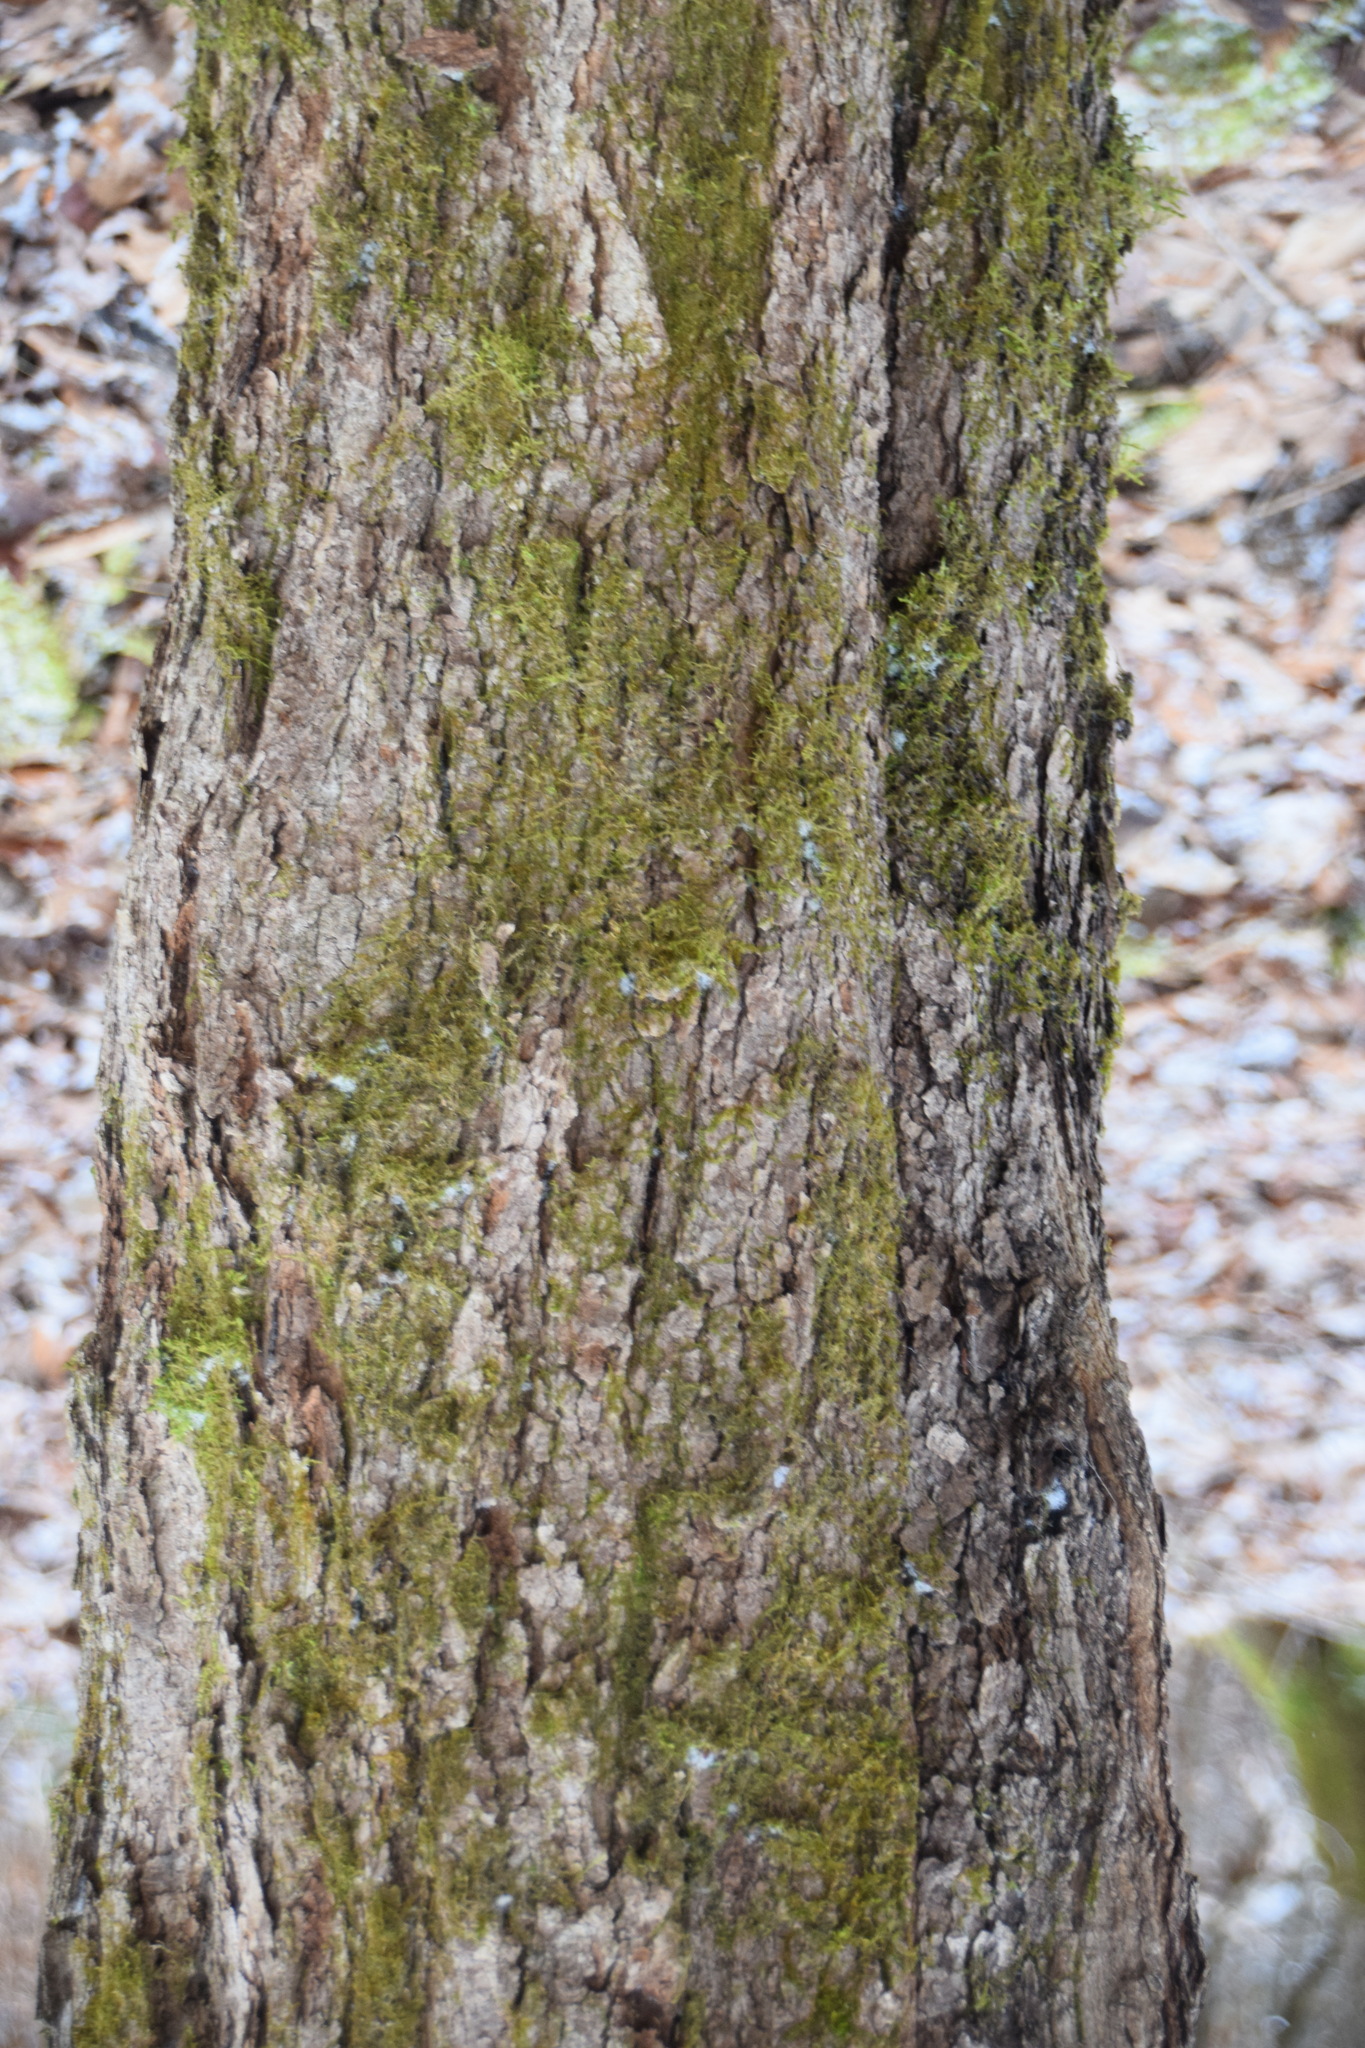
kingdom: Plantae
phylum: Tracheophyta
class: Magnoliopsida
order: Sapindales
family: Sapindaceae
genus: Acer
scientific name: Acer saccharum
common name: Sugar maple
